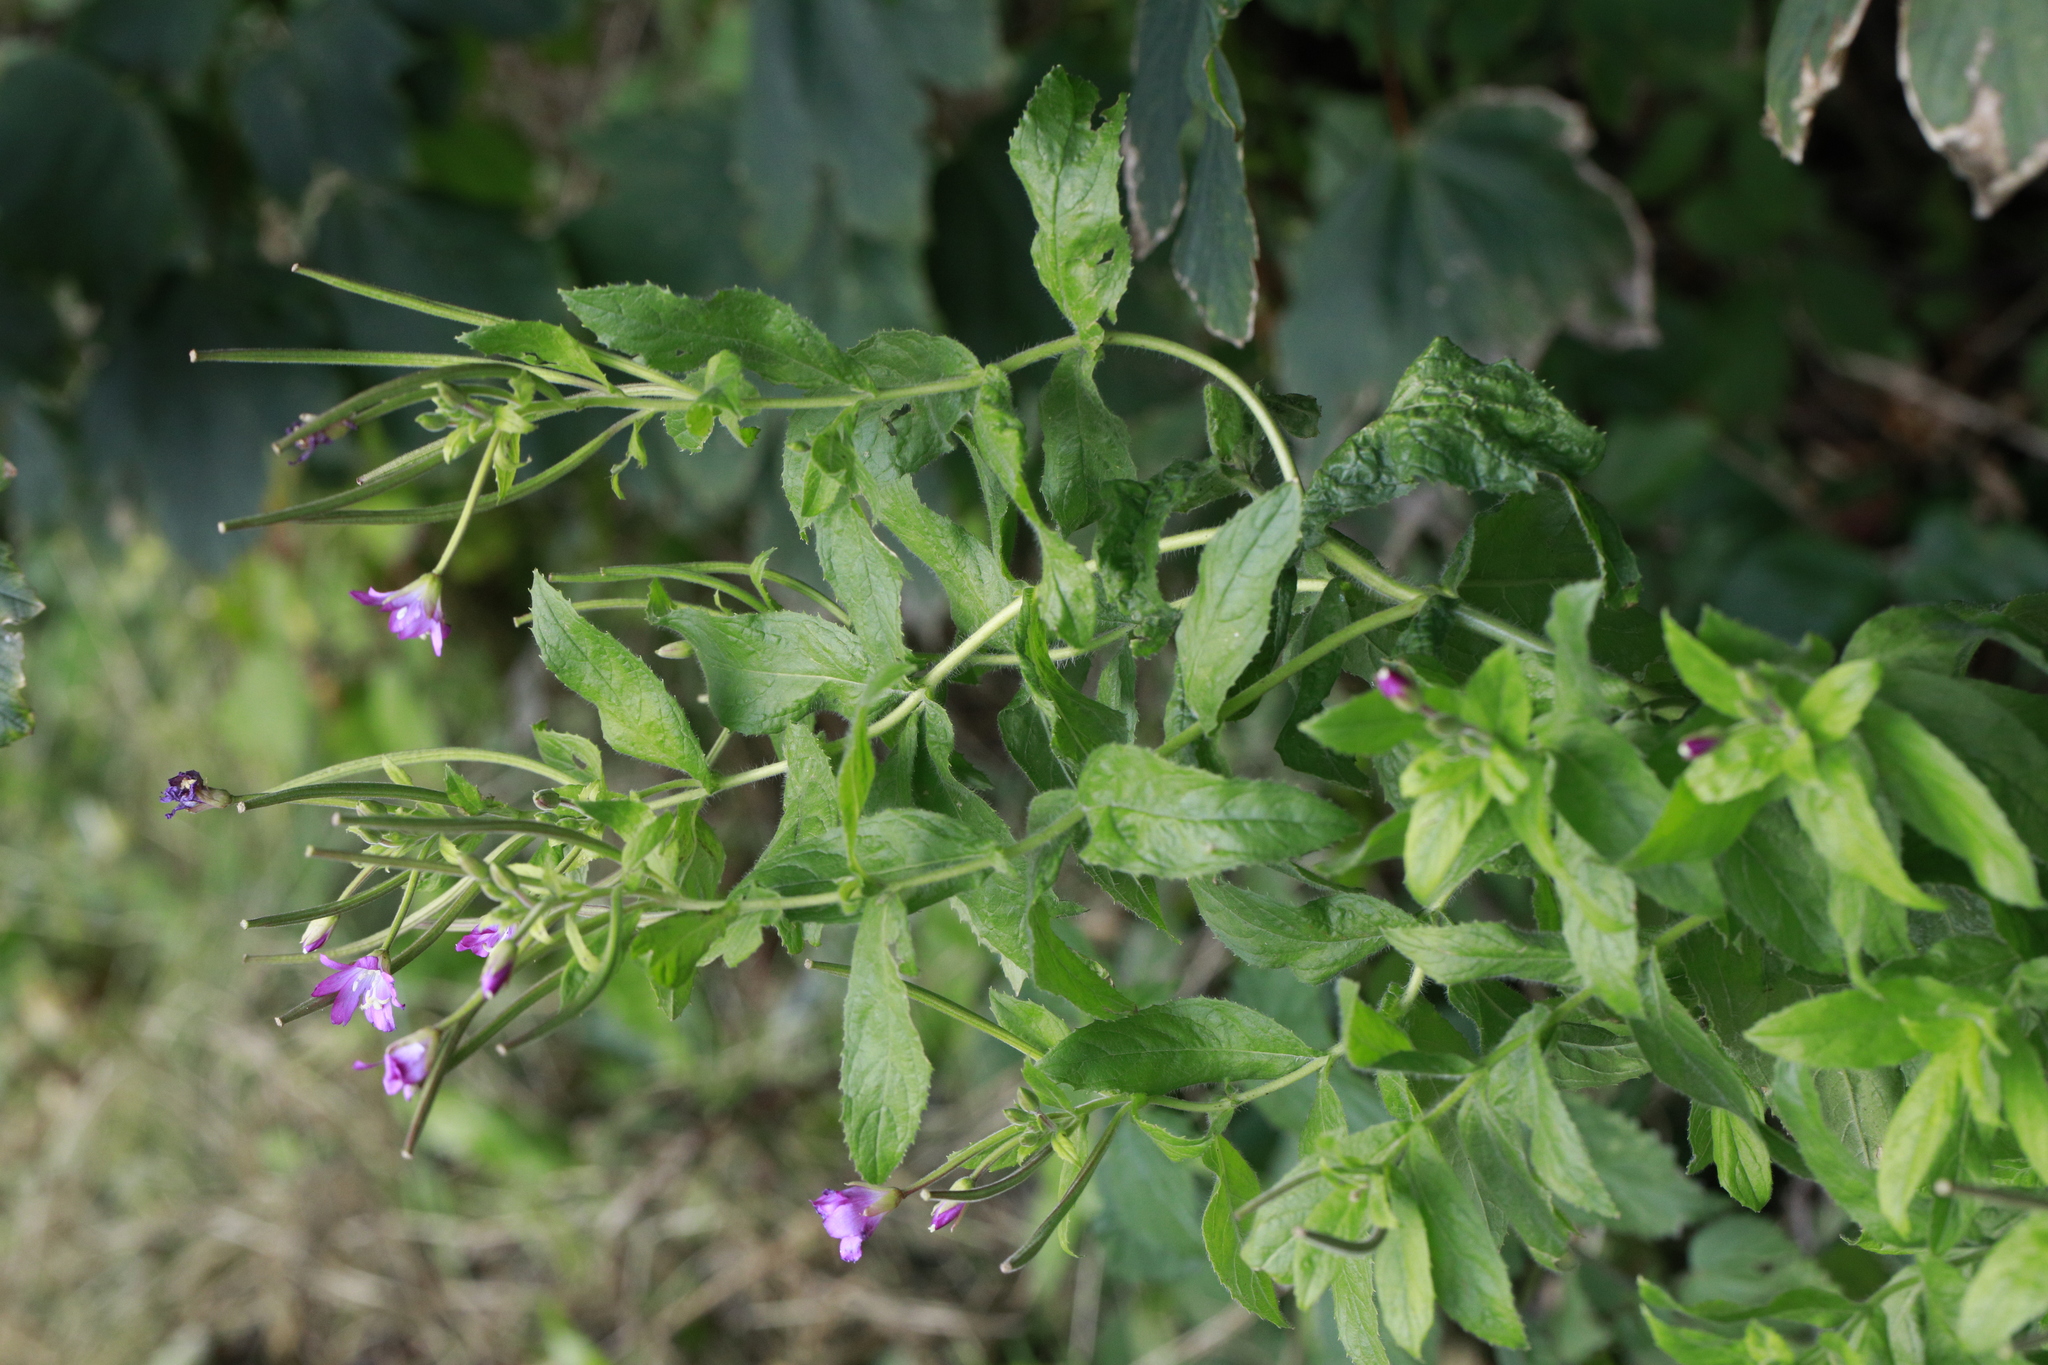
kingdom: Plantae
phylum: Tracheophyta
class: Magnoliopsida
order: Myrtales
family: Onagraceae
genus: Epilobium
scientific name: Epilobium hirsutum
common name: Great willowherb
